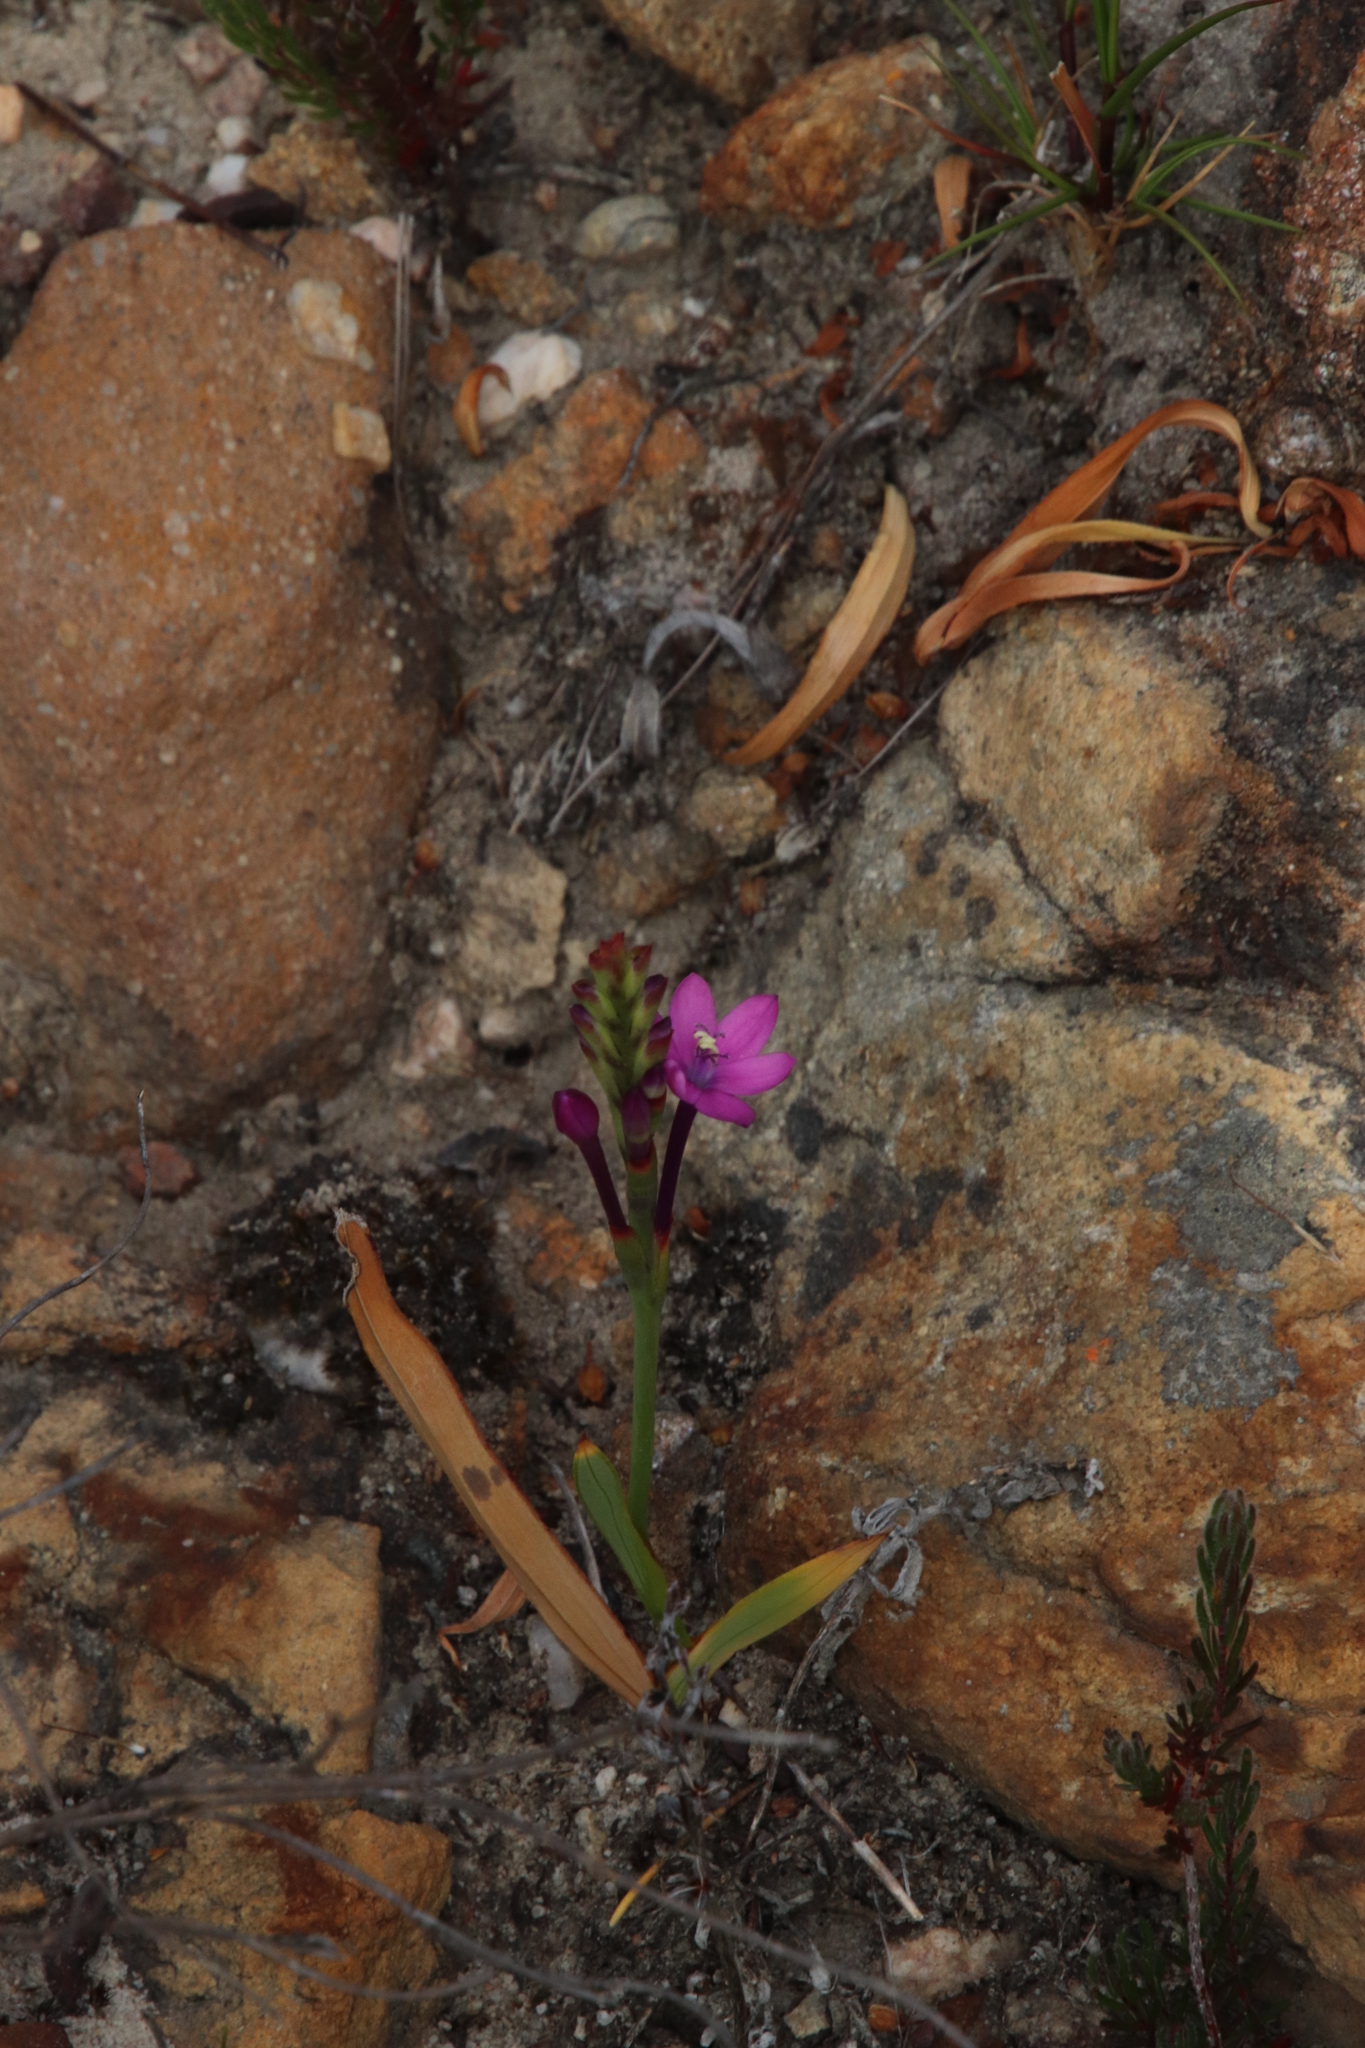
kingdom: Plantae
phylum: Tracheophyta
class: Liliopsida
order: Asparagales
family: Iridaceae
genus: Thereianthus
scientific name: Thereianthus minutus
